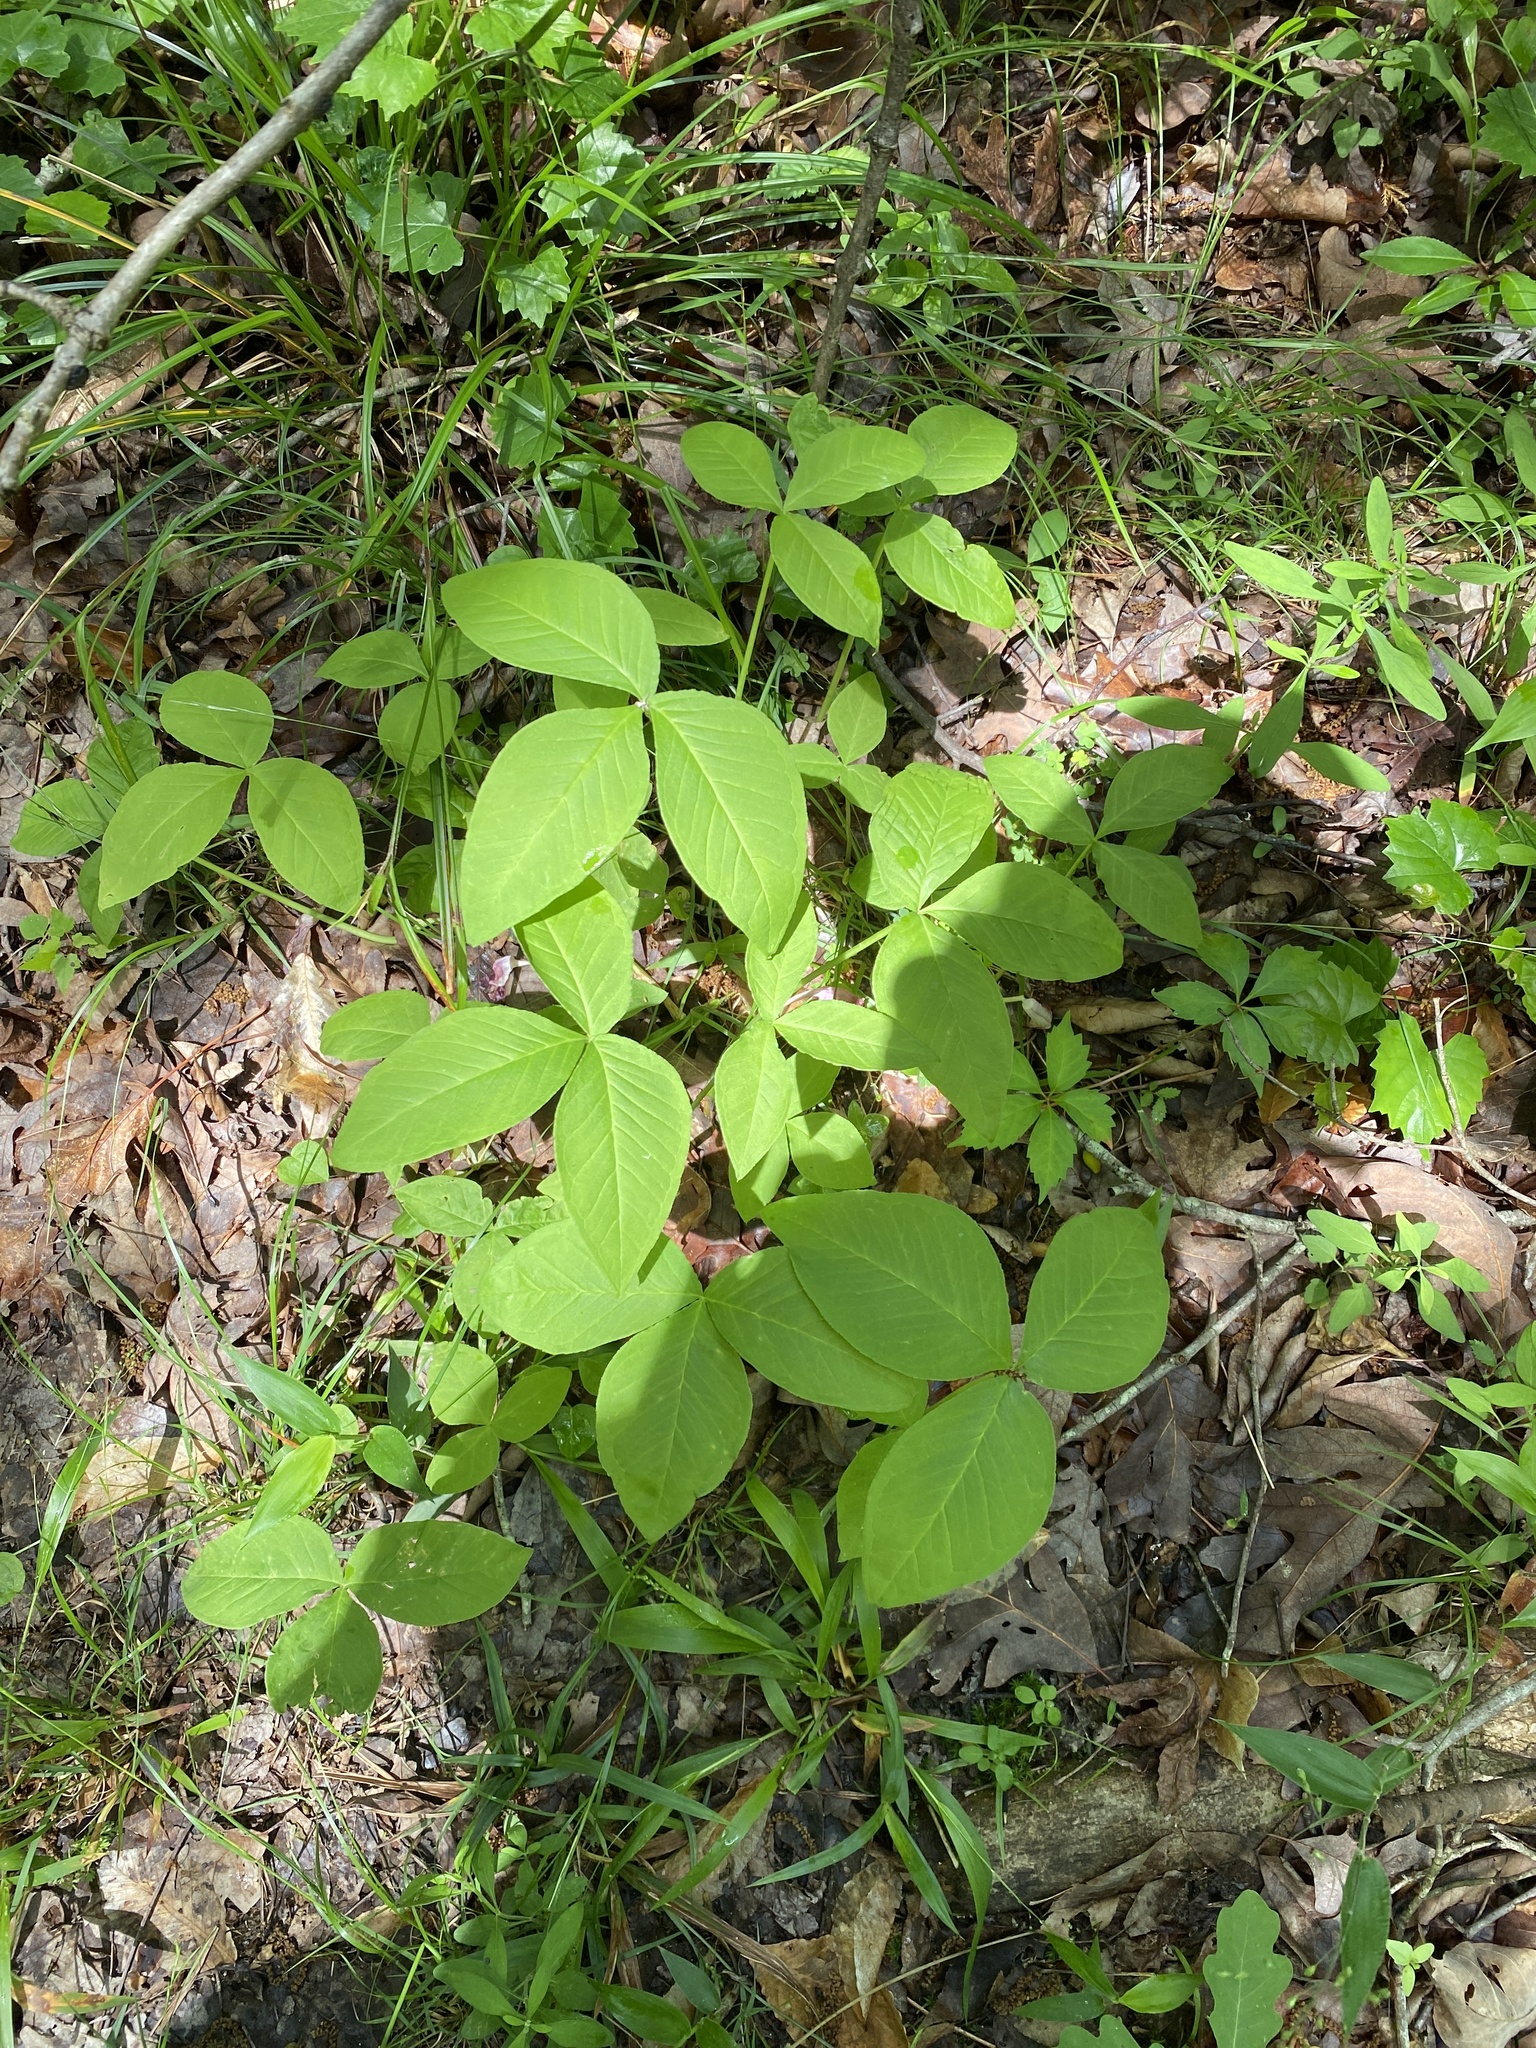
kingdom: Plantae
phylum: Tracheophyta
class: Liliopsida
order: Alismatales
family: Araceae
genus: Arisaema
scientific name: Arisaema pusillum
